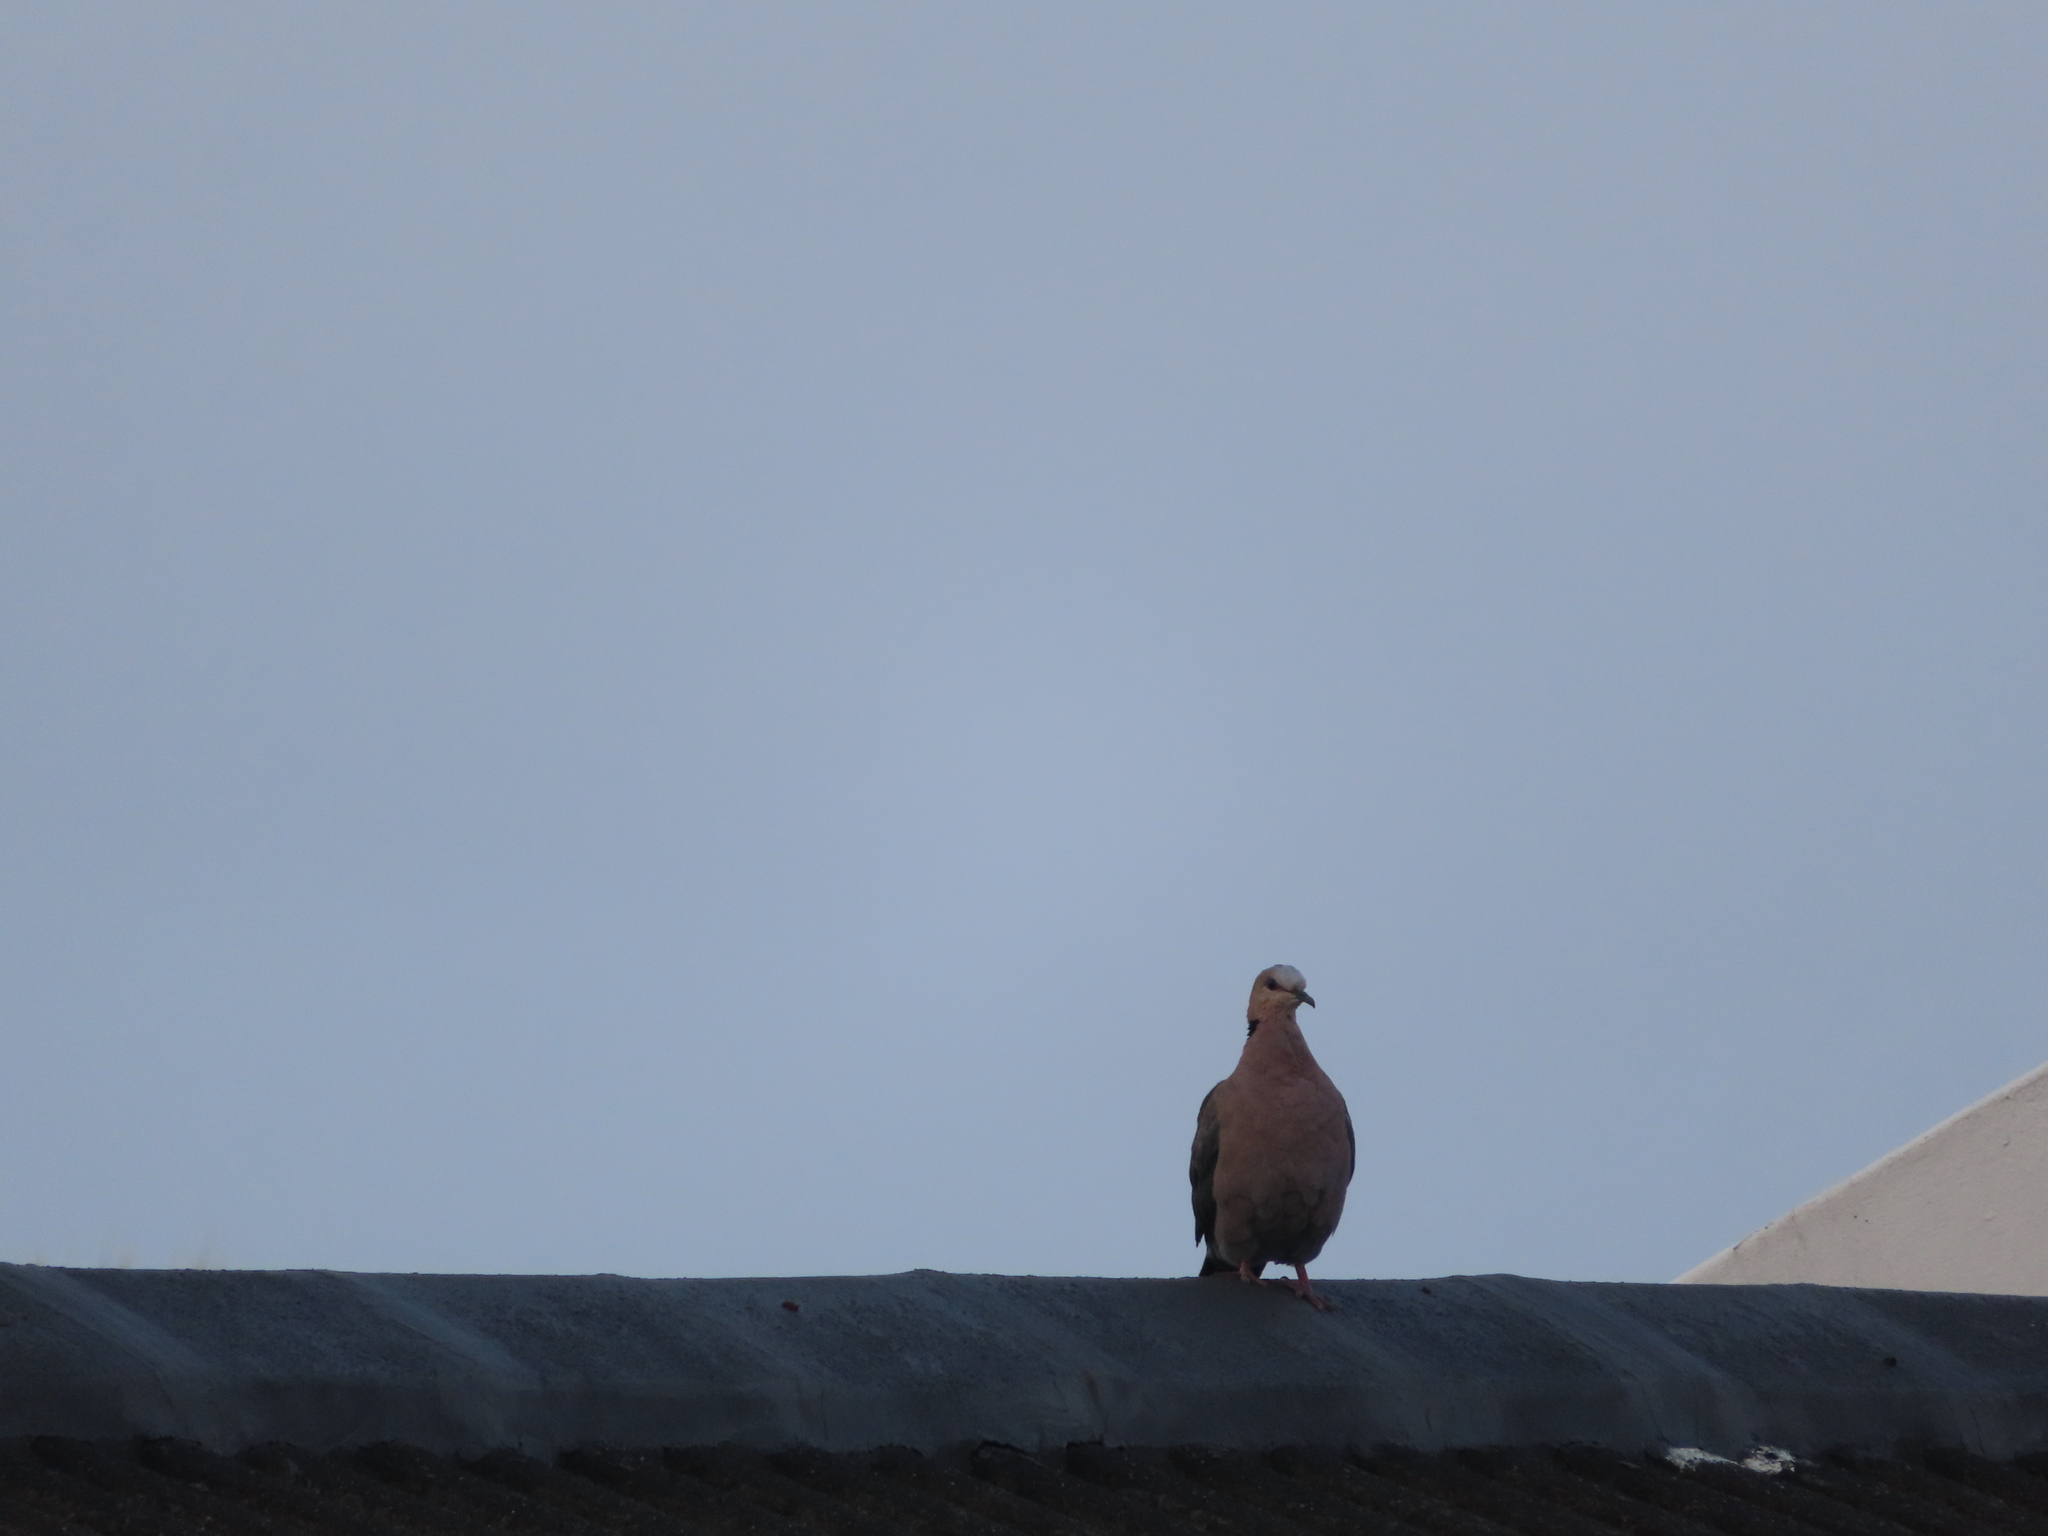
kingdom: Animalia
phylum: Chordata
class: Aves
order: Columbiformes
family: Columbidae
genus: Streptopelia
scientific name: Streptopelia semitorquata
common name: Red-eyed dove
